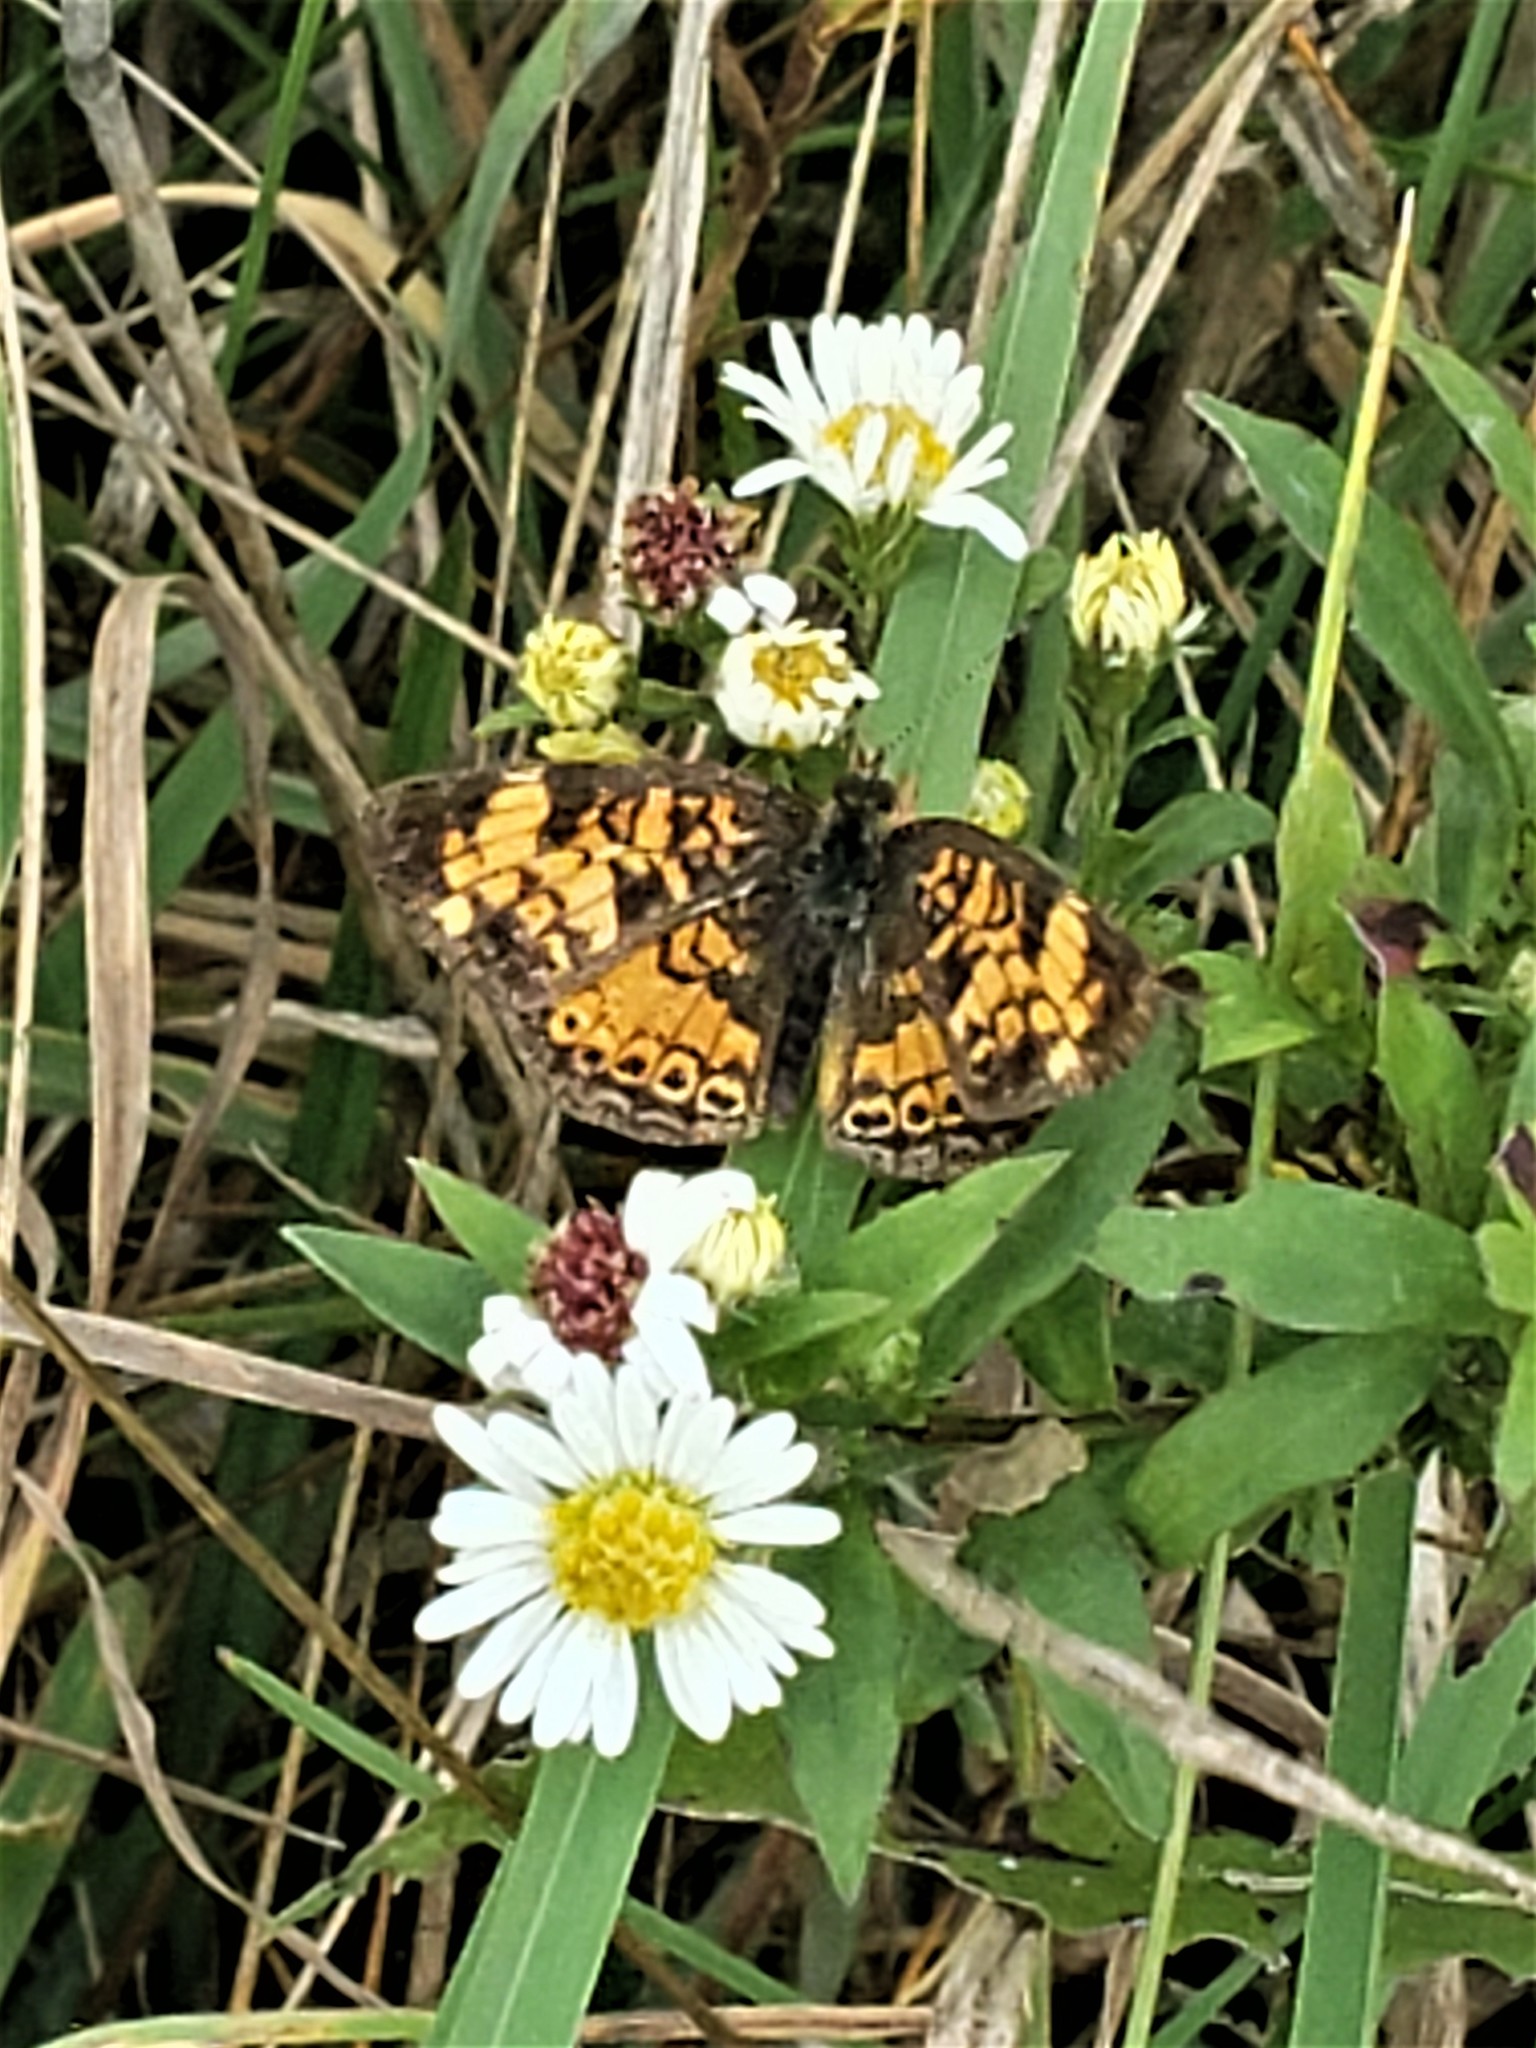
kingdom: Animalia
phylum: Arthropoda
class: Insecta
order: Lepidoptera
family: Nymphalidae
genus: Phyciodes
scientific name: Phyciodes tharos
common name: Pearl crescent
